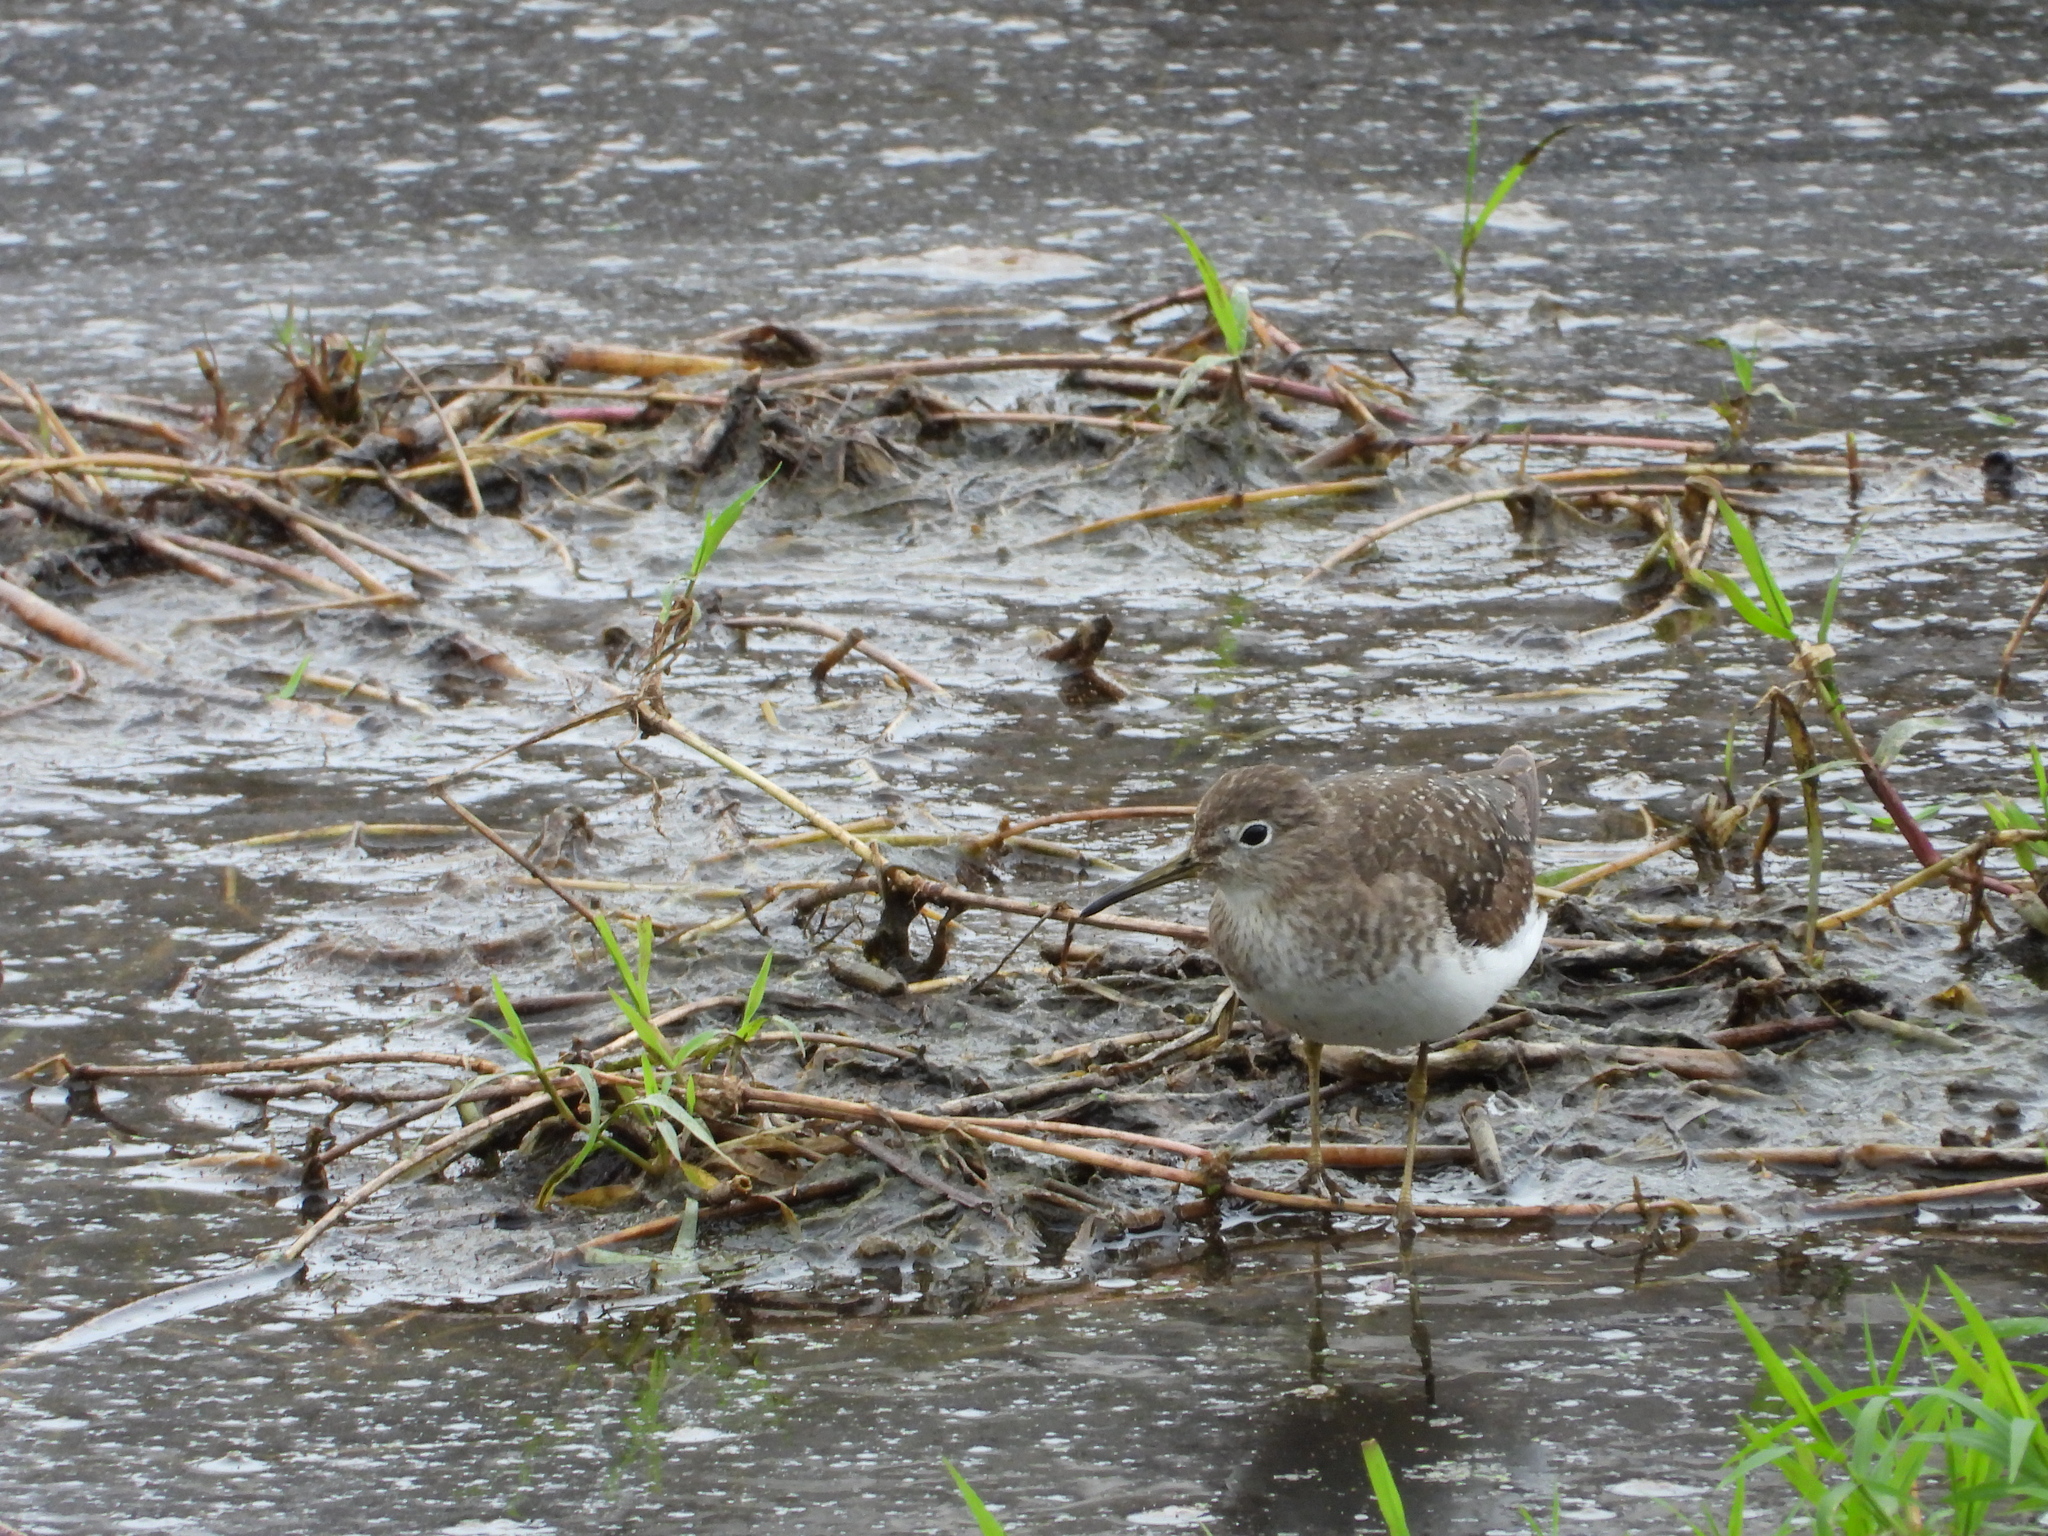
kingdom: Animalia
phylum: Chordata
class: Aves
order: Charadriiformes
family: Scolopacidae
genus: Tringa
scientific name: Tringa solitaria
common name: Solitary sandpiper
